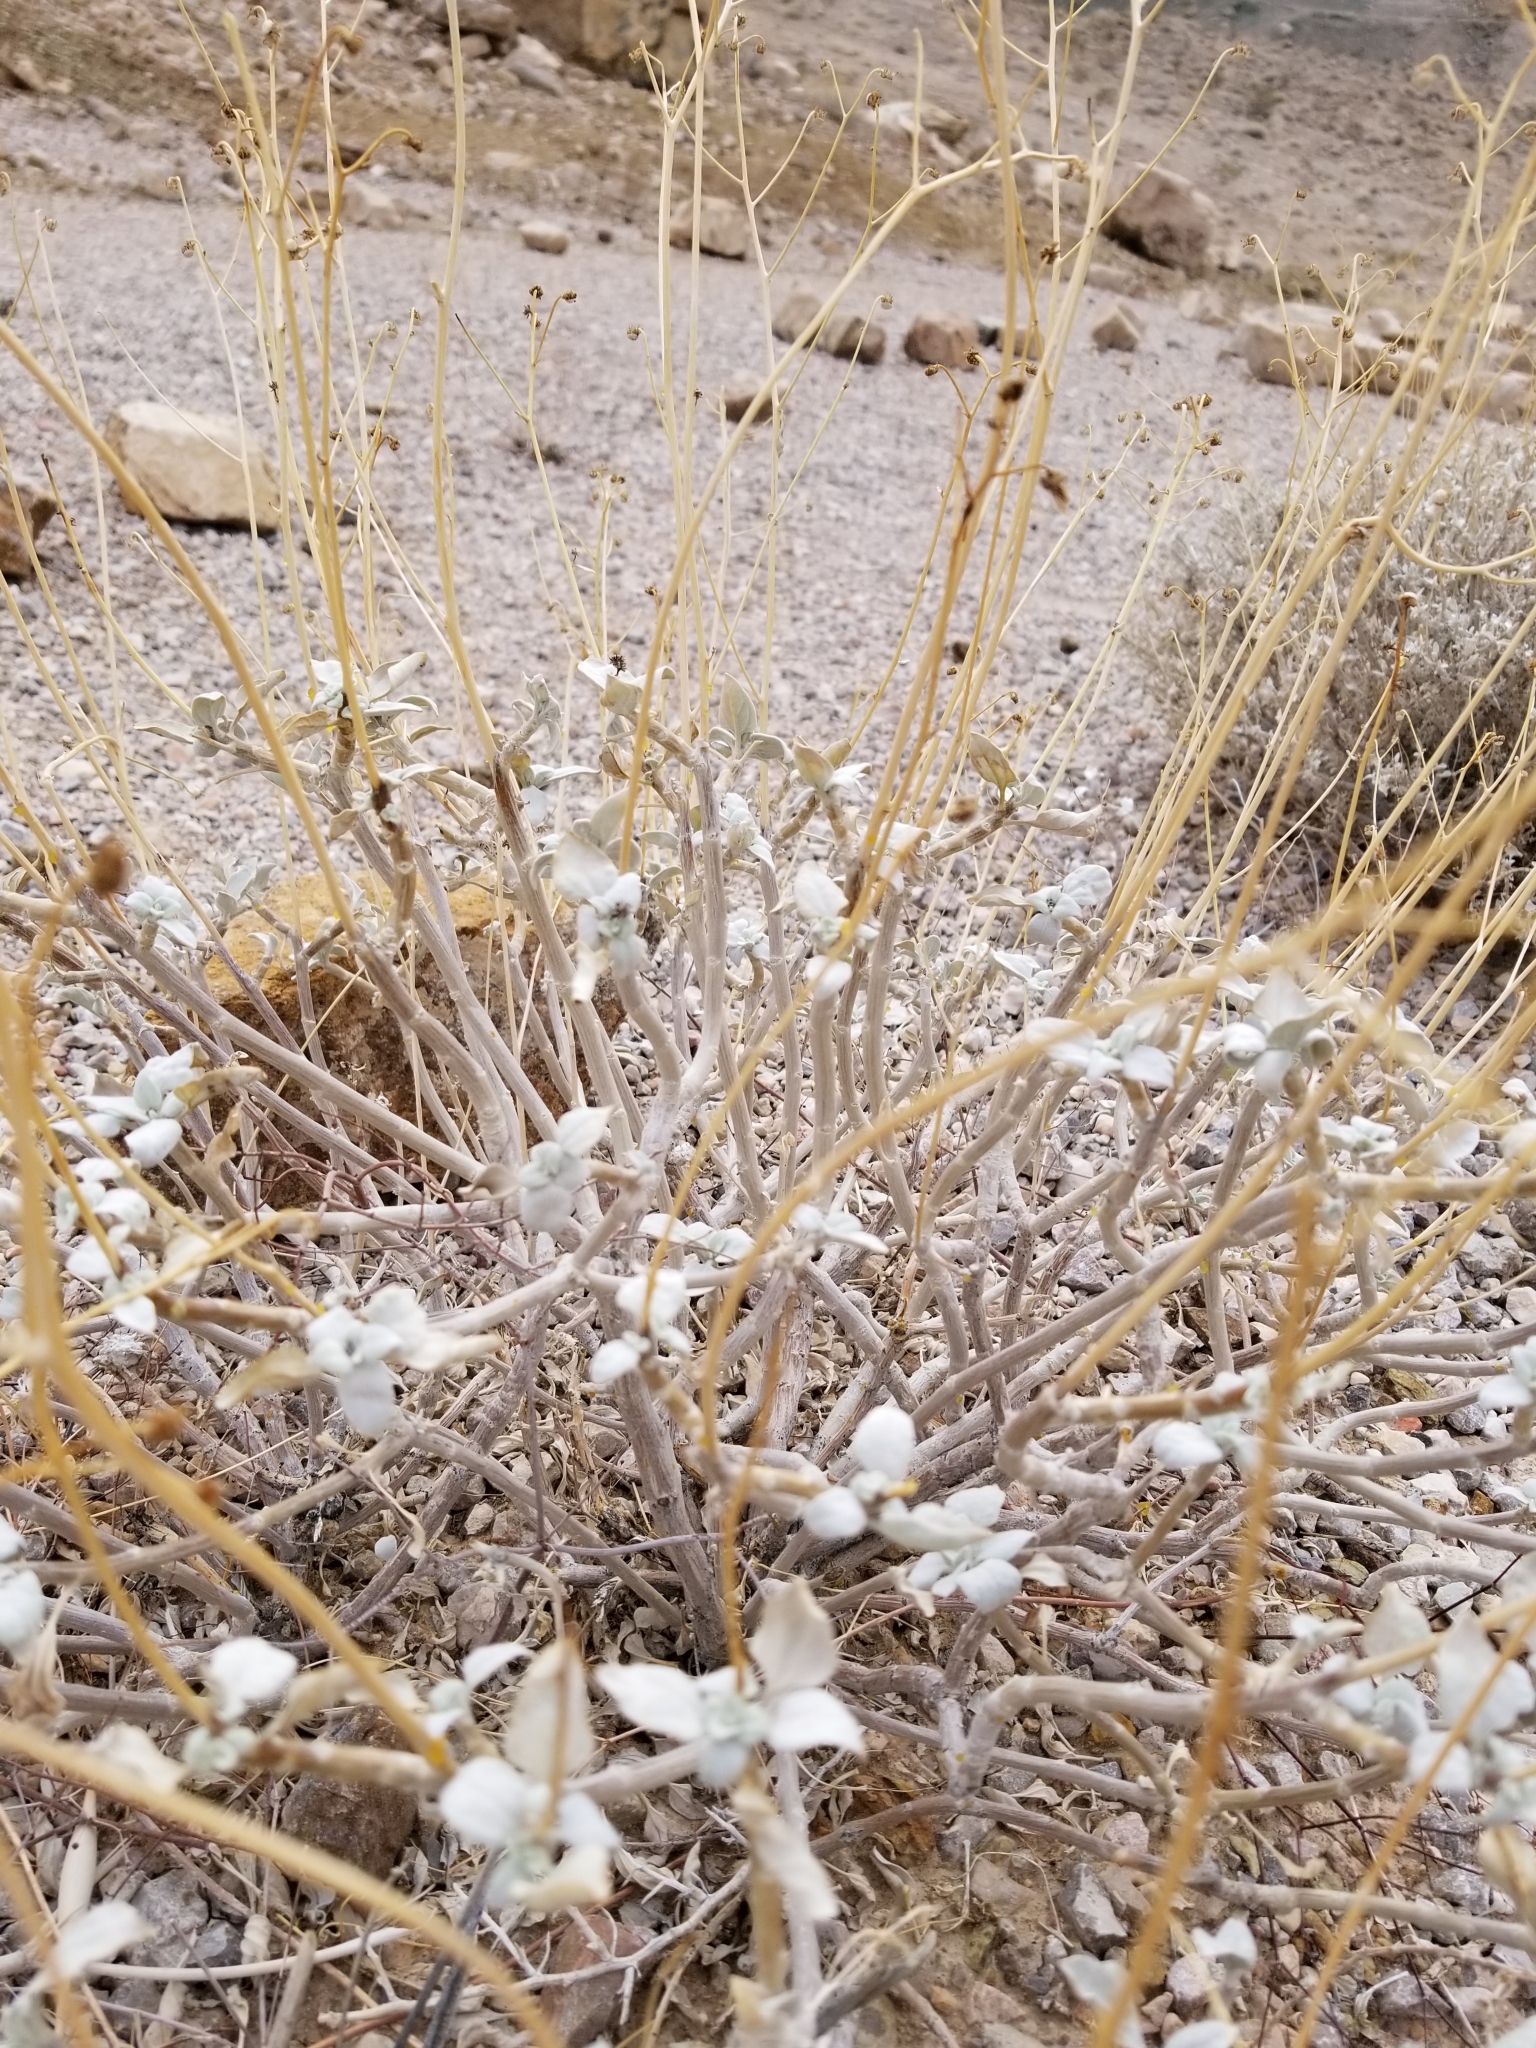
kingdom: Plantae
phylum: Tracheophyta
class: Magnoliopsida
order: Asterales
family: Asteraceae
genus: Encelia
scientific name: Encelia farinosa
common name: Brittlebush
